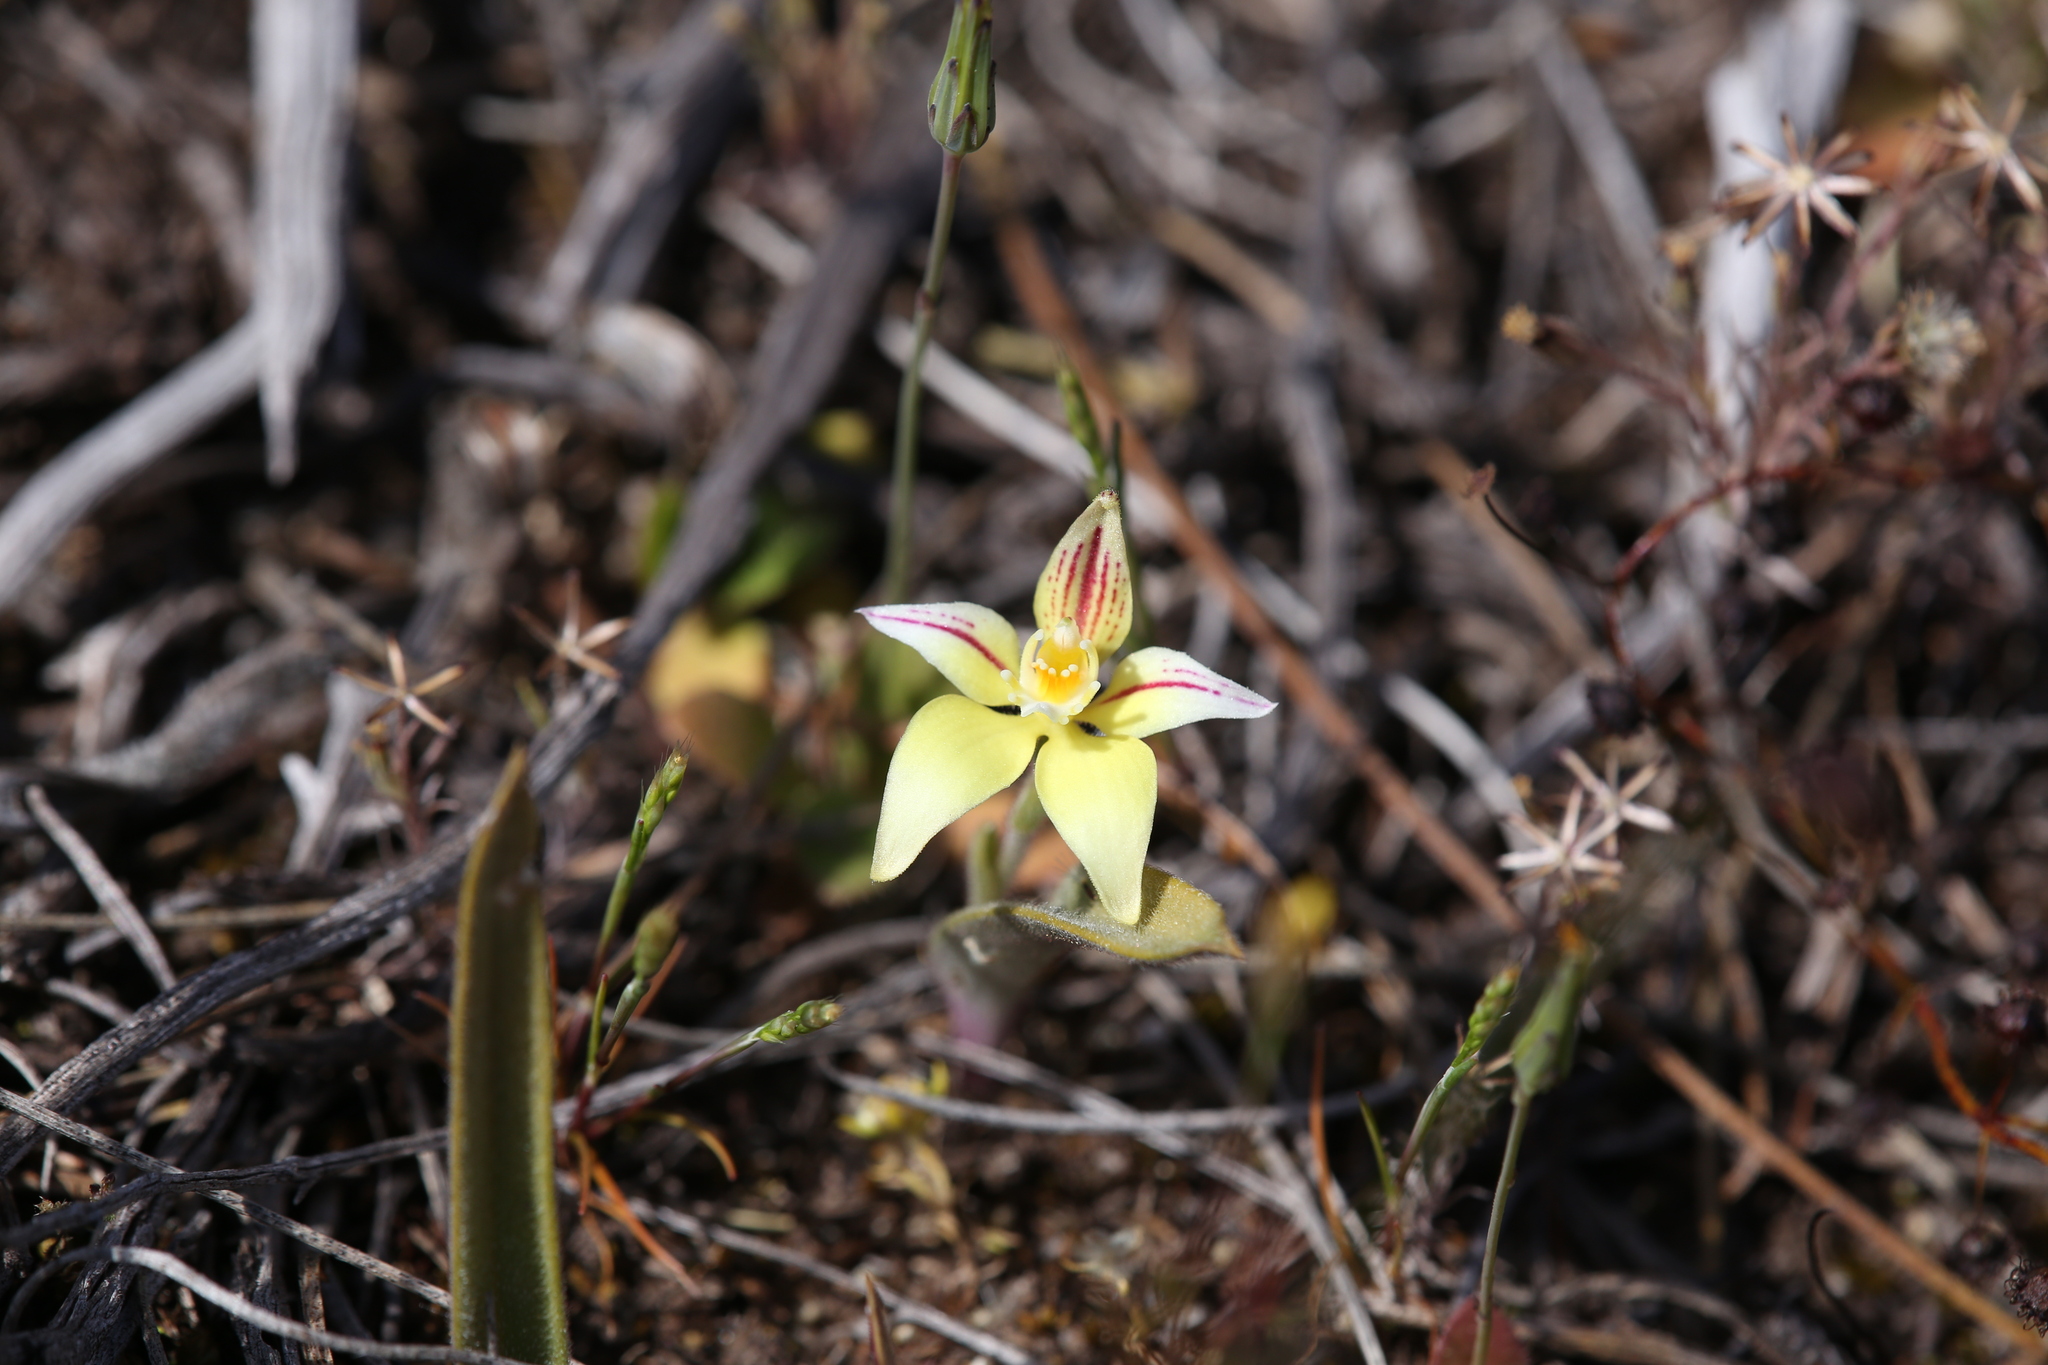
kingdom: Plantae
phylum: Tracheophyta
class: Liliopsida
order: Asparagales
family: Orchidaceae
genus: Caladenia
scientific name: Caladenia flava
